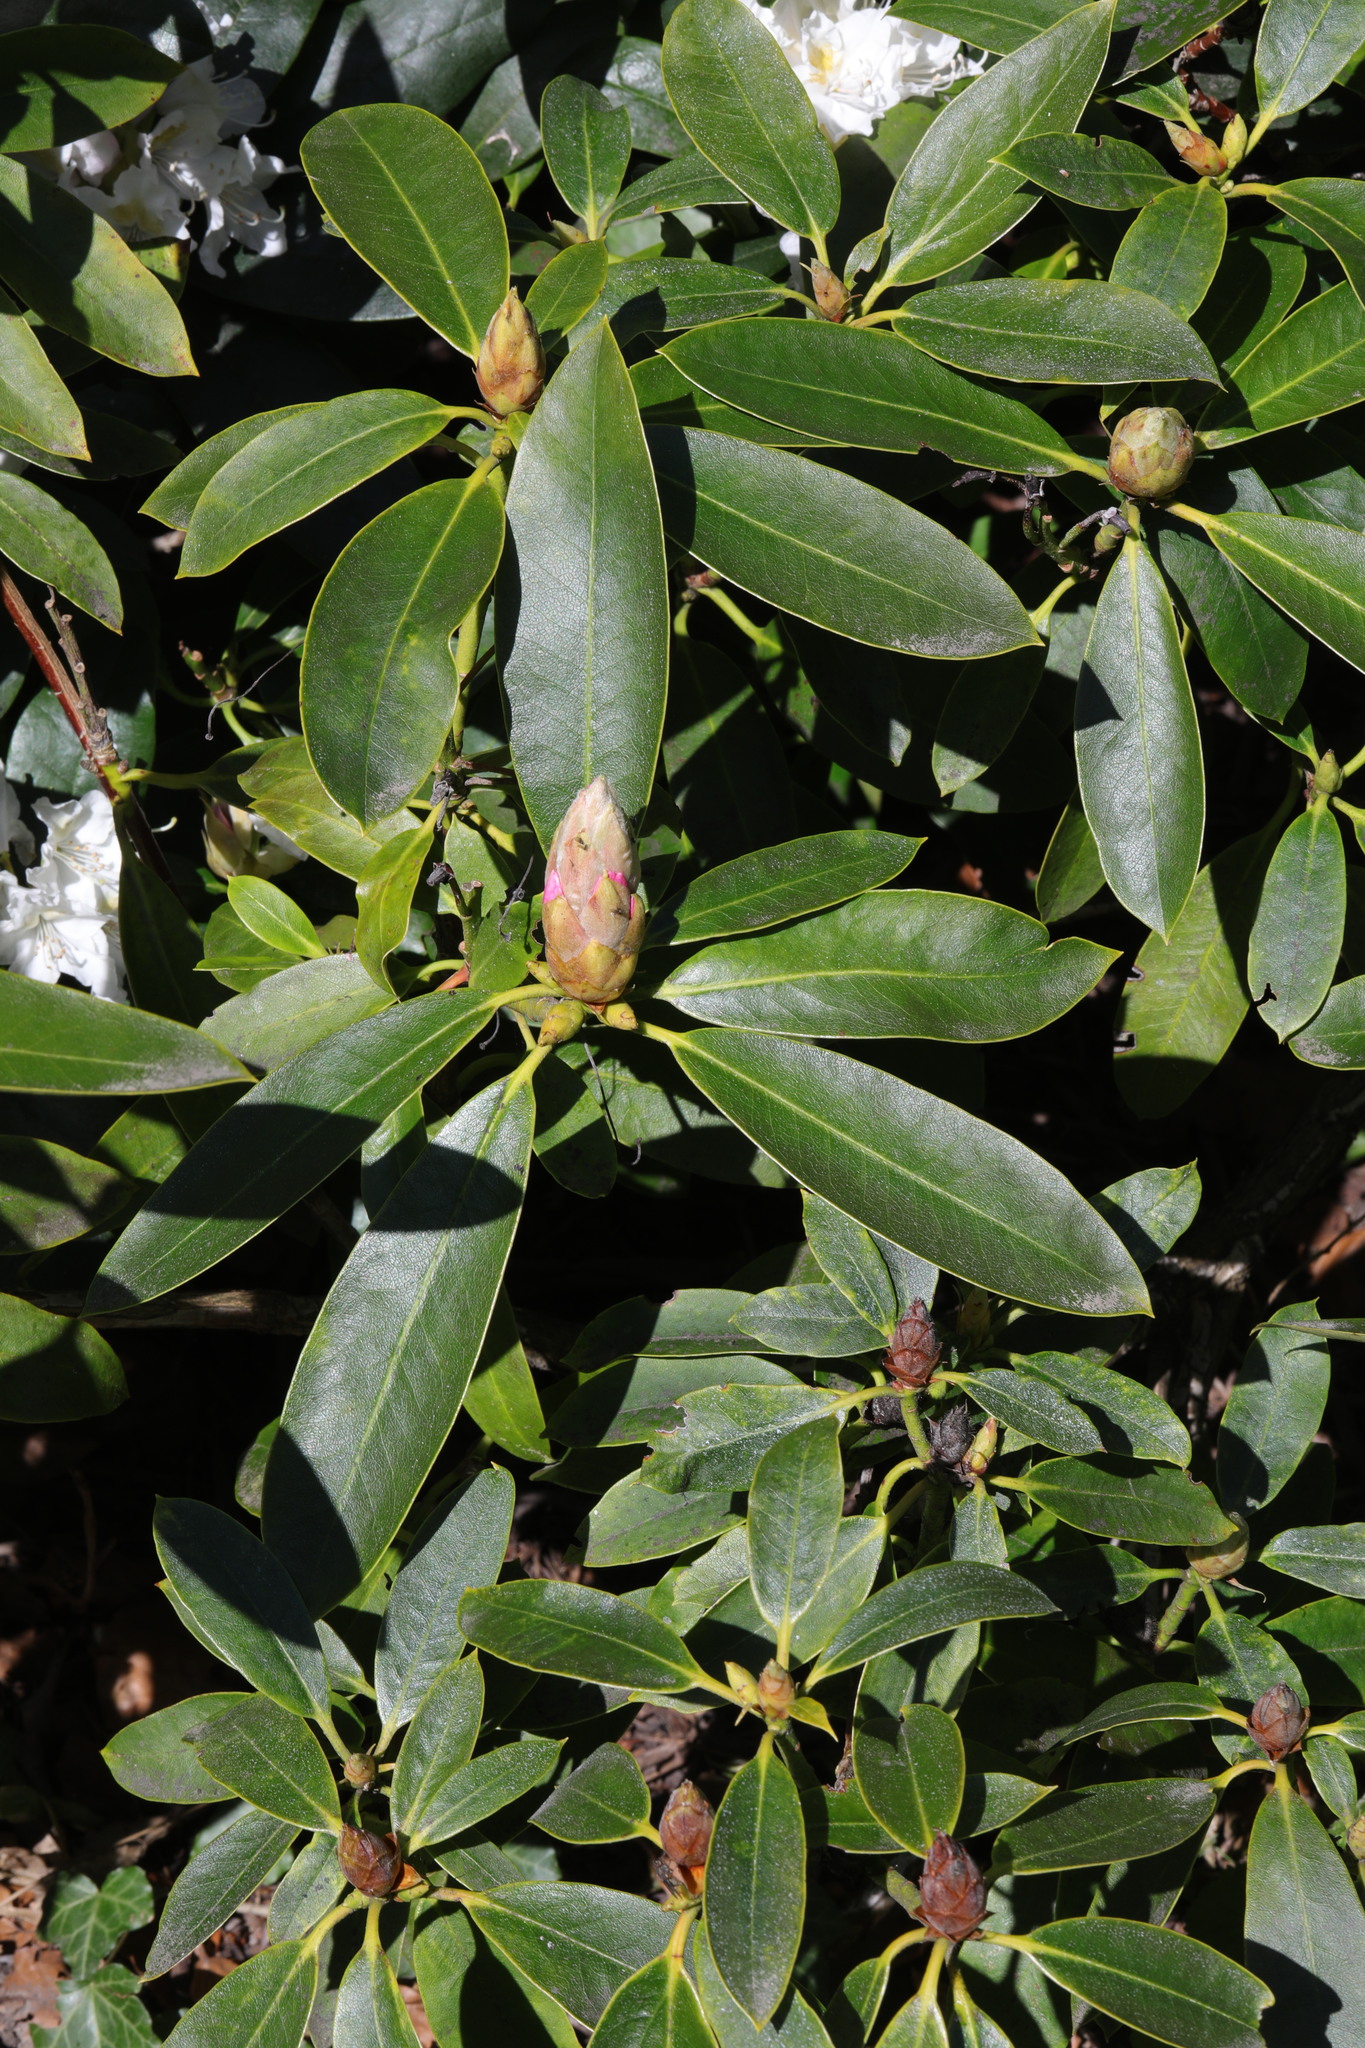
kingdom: Plantae
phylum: Tracheophyta
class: Magnoliopsida
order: Ericales
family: Ericaceae
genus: Rhododendron
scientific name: Rhododendron ponticum
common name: Rhododendron
